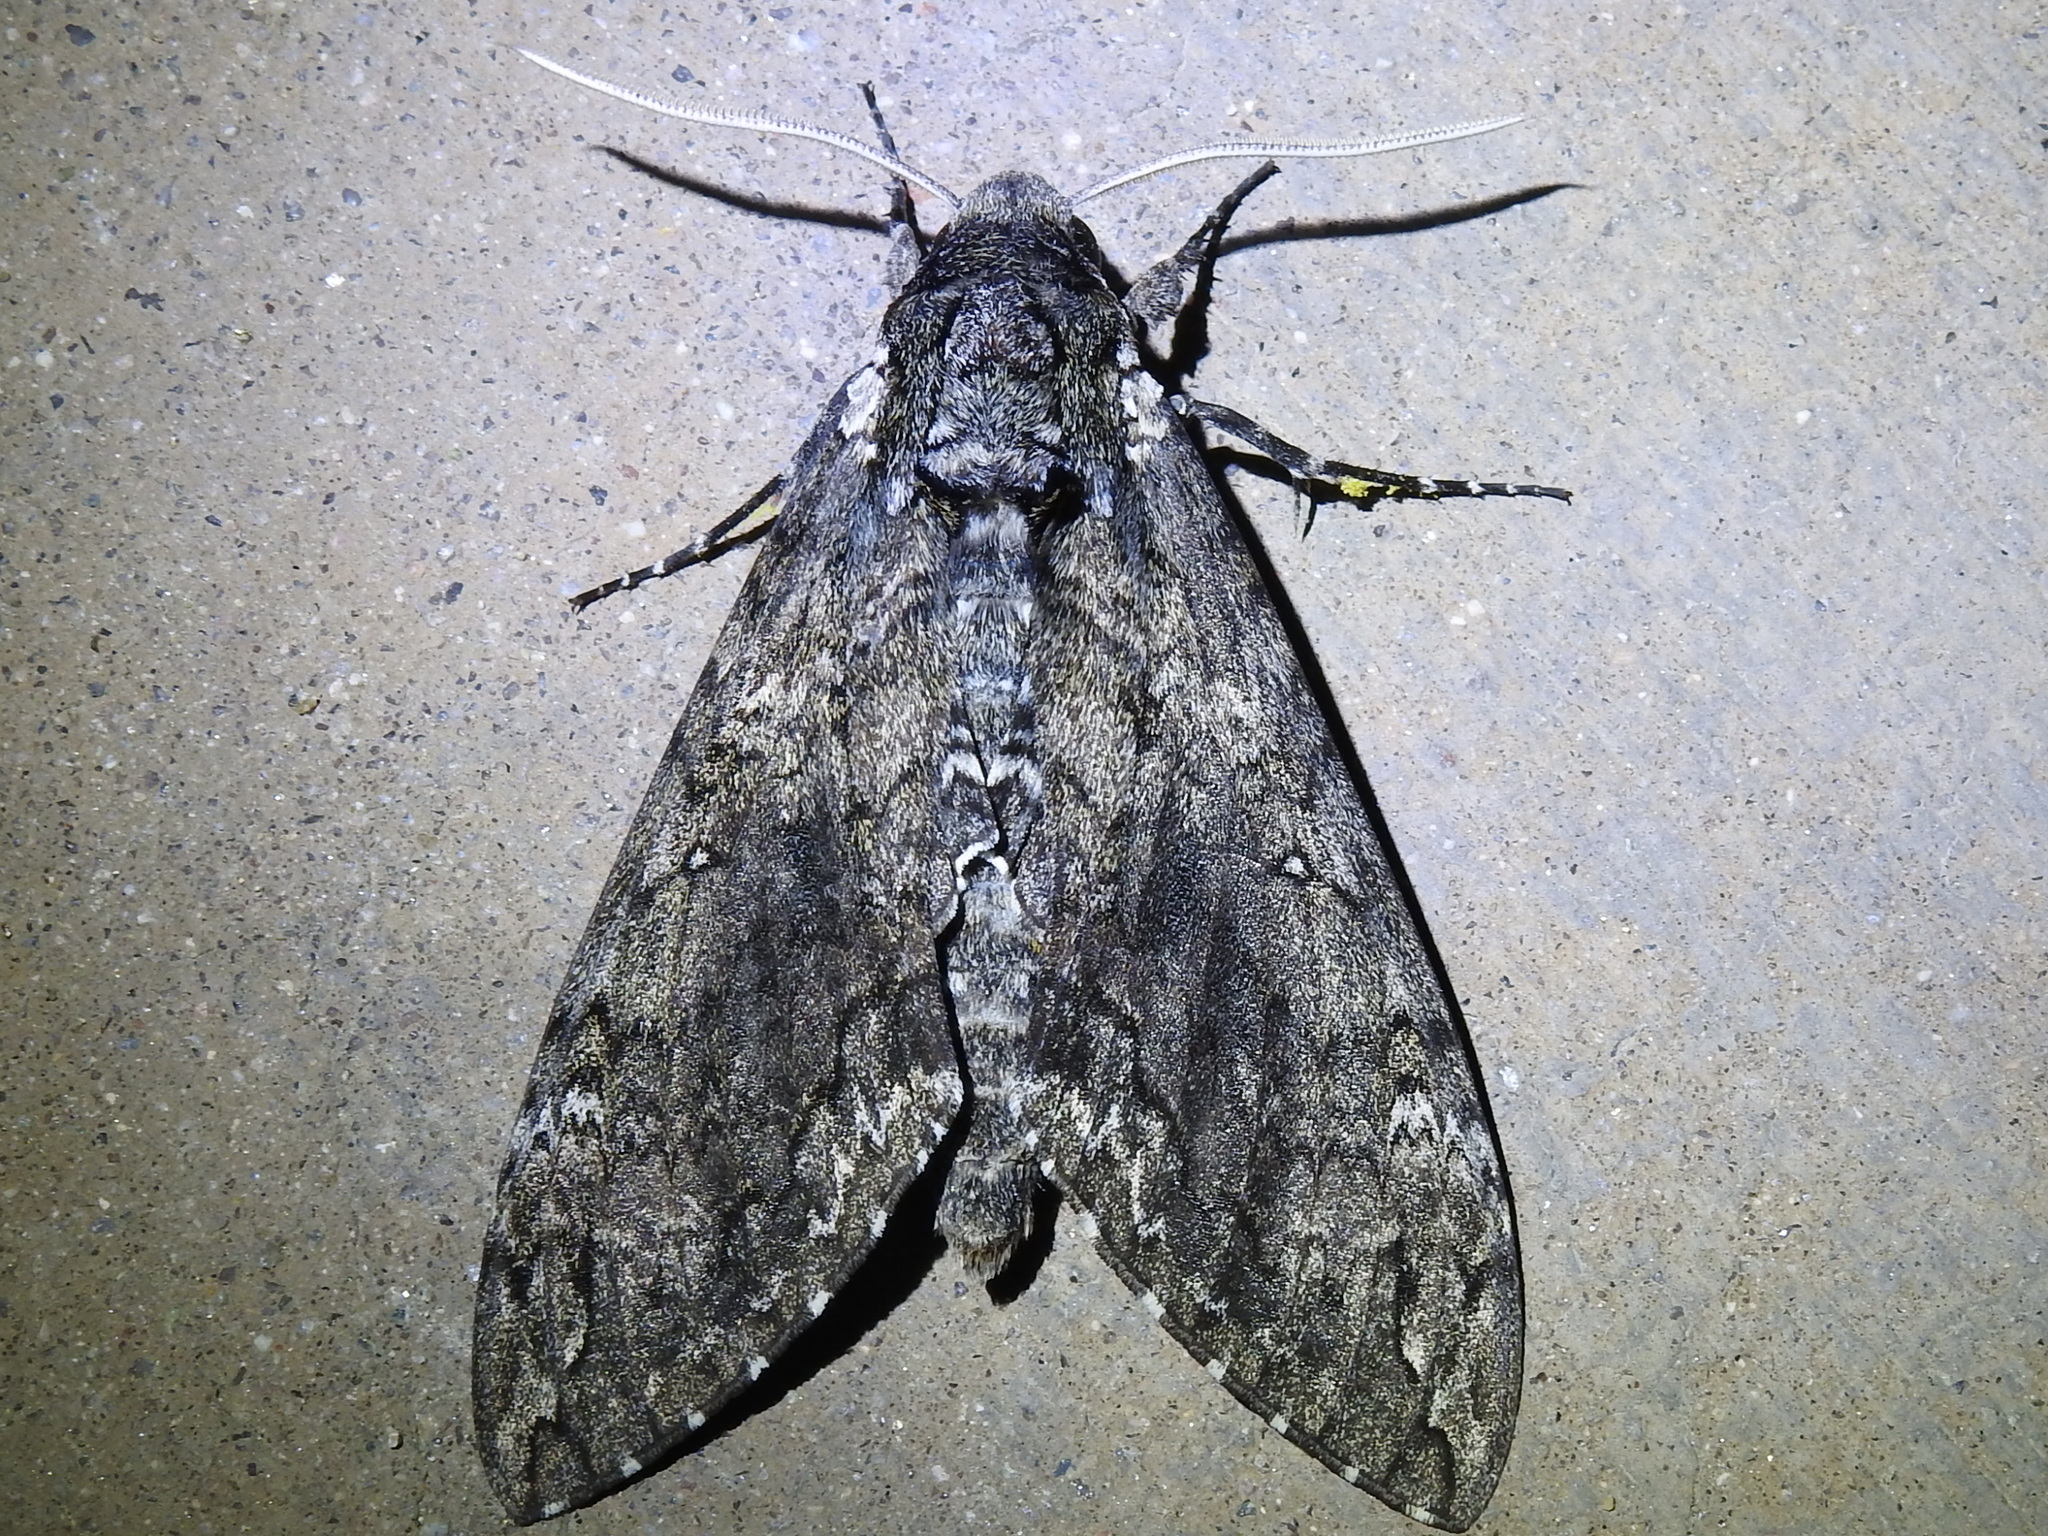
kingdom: Animalia
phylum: Arthropoda
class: Insecta
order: Lepidoptera
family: Sphingidae
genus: Manduca
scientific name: Manduca sexta
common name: Carolina sphinx
